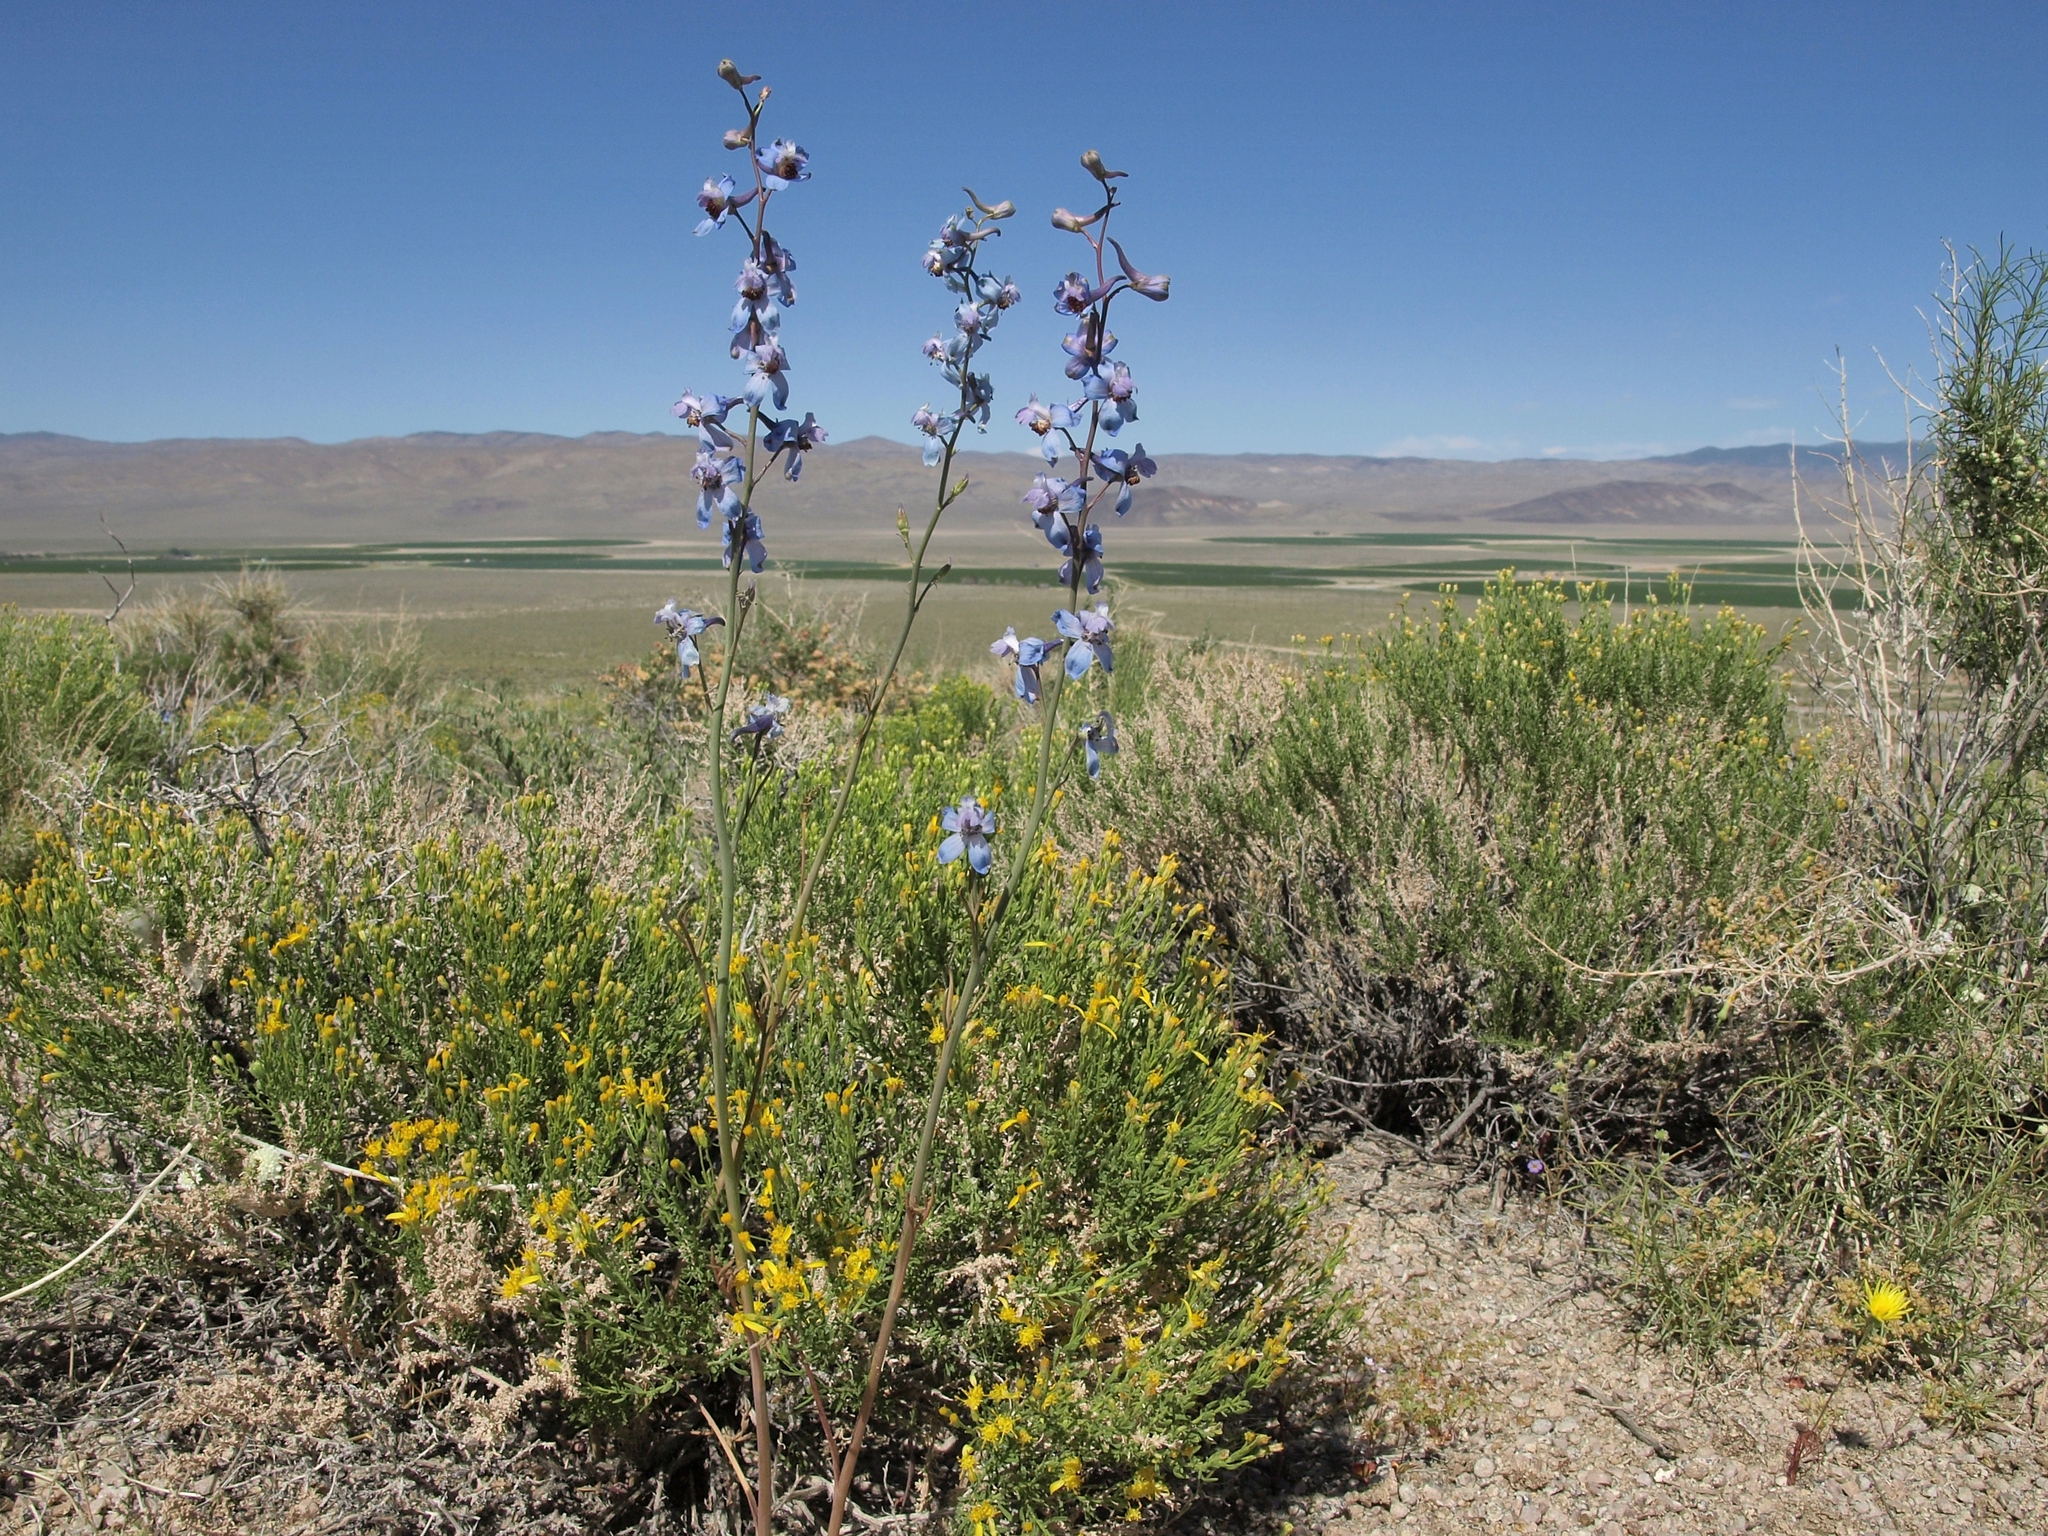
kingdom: Plantae
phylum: Tracheophyta
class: Magnoliopsida
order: Ranunculales
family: Ranunculaceae
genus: Delphinium
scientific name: Delphinium parishii
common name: Apache larkspur
